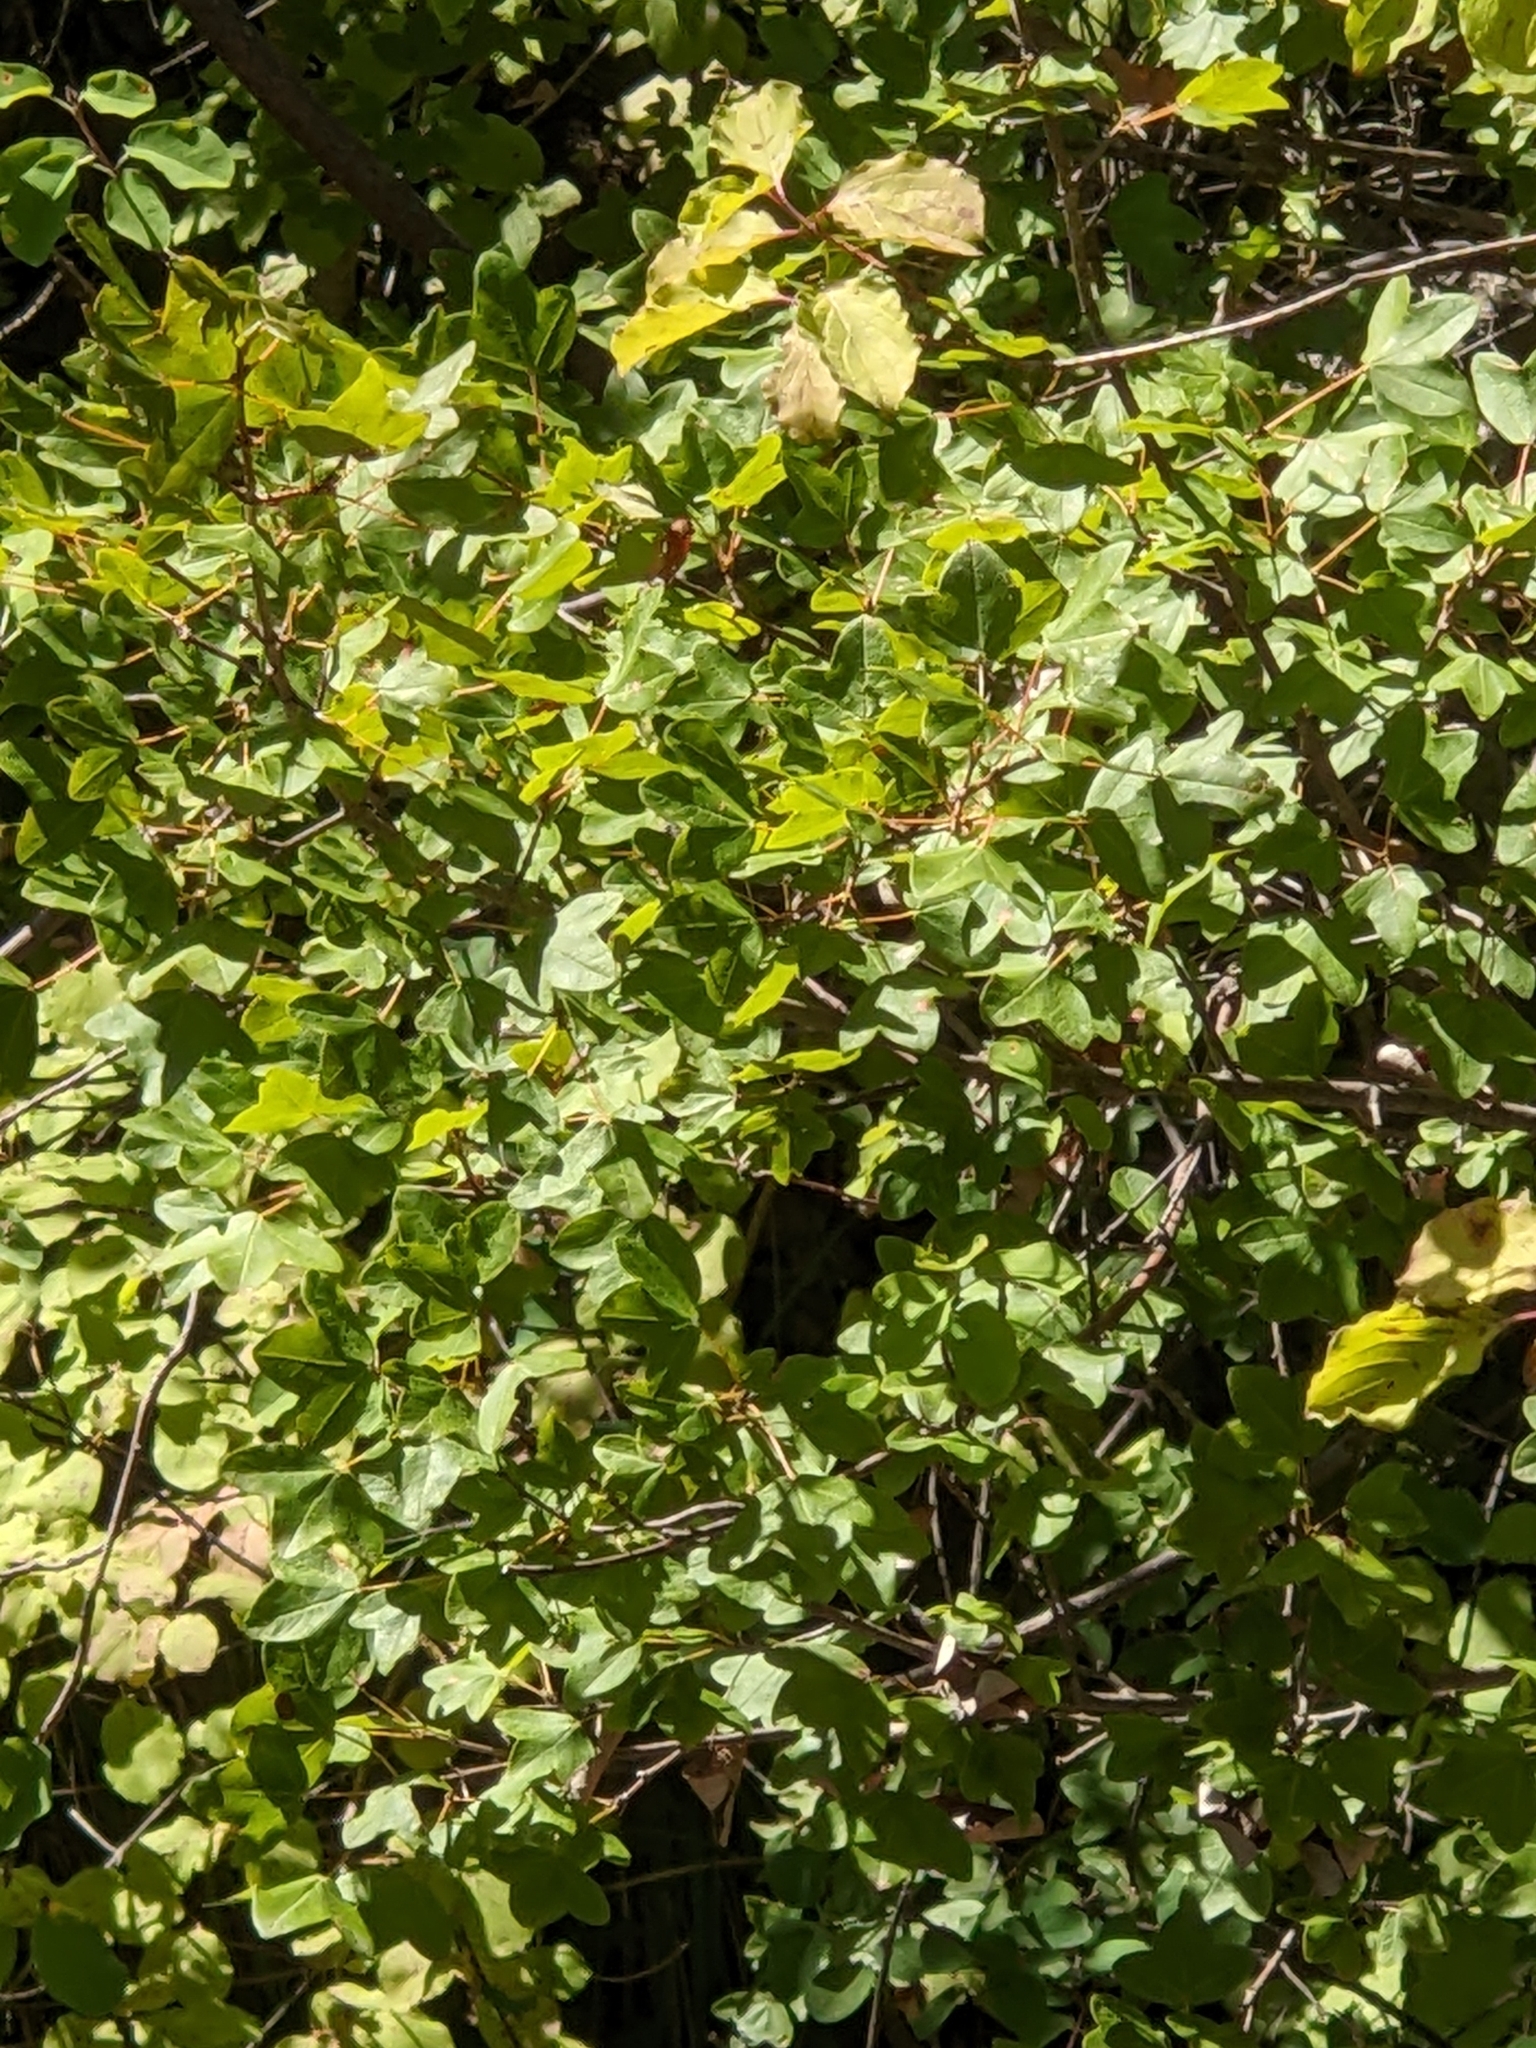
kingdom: Plantae
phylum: Tracheophyta
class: Magnoliopsida
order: Sapindales
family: Sapindaceae
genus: Acer
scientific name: Acer monspessulanum
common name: Montpellier maple
